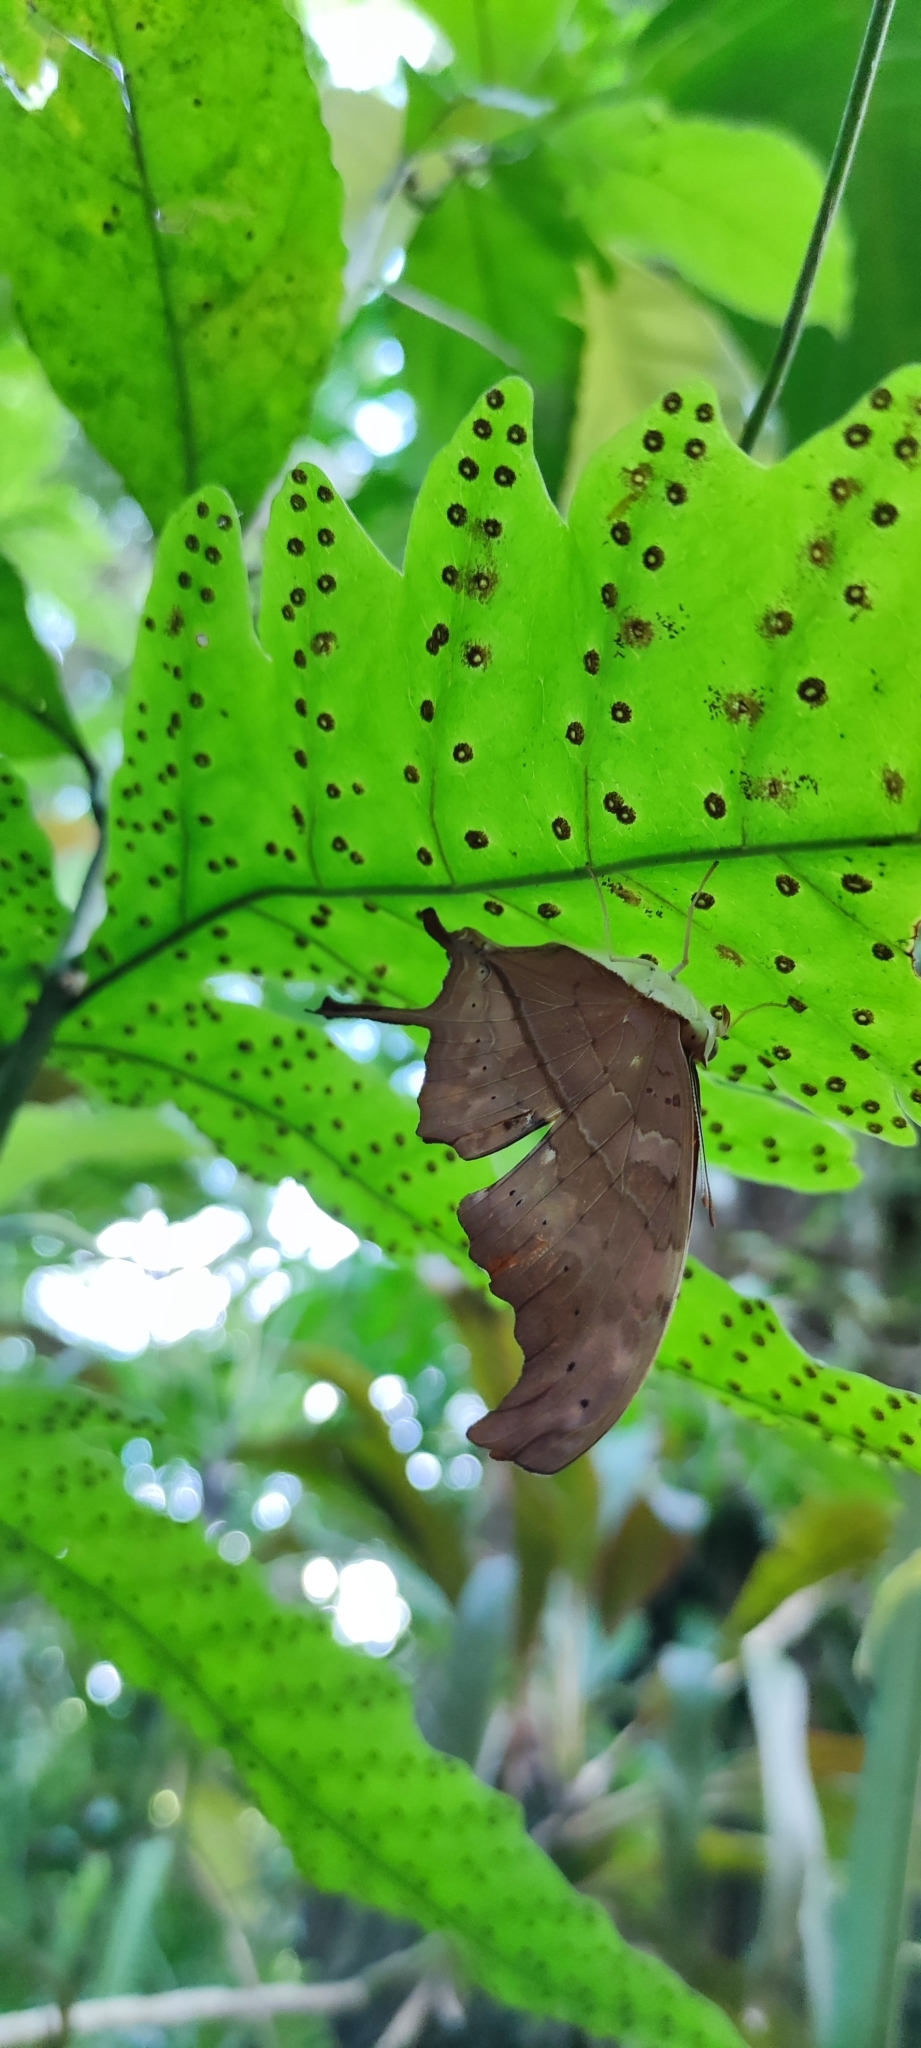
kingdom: Animalia
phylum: Arthropoda
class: Insecta
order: Lepidoptera
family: Nymphalidae
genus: Marpesia
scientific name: Marpesia petreus
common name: Red dagger wing
